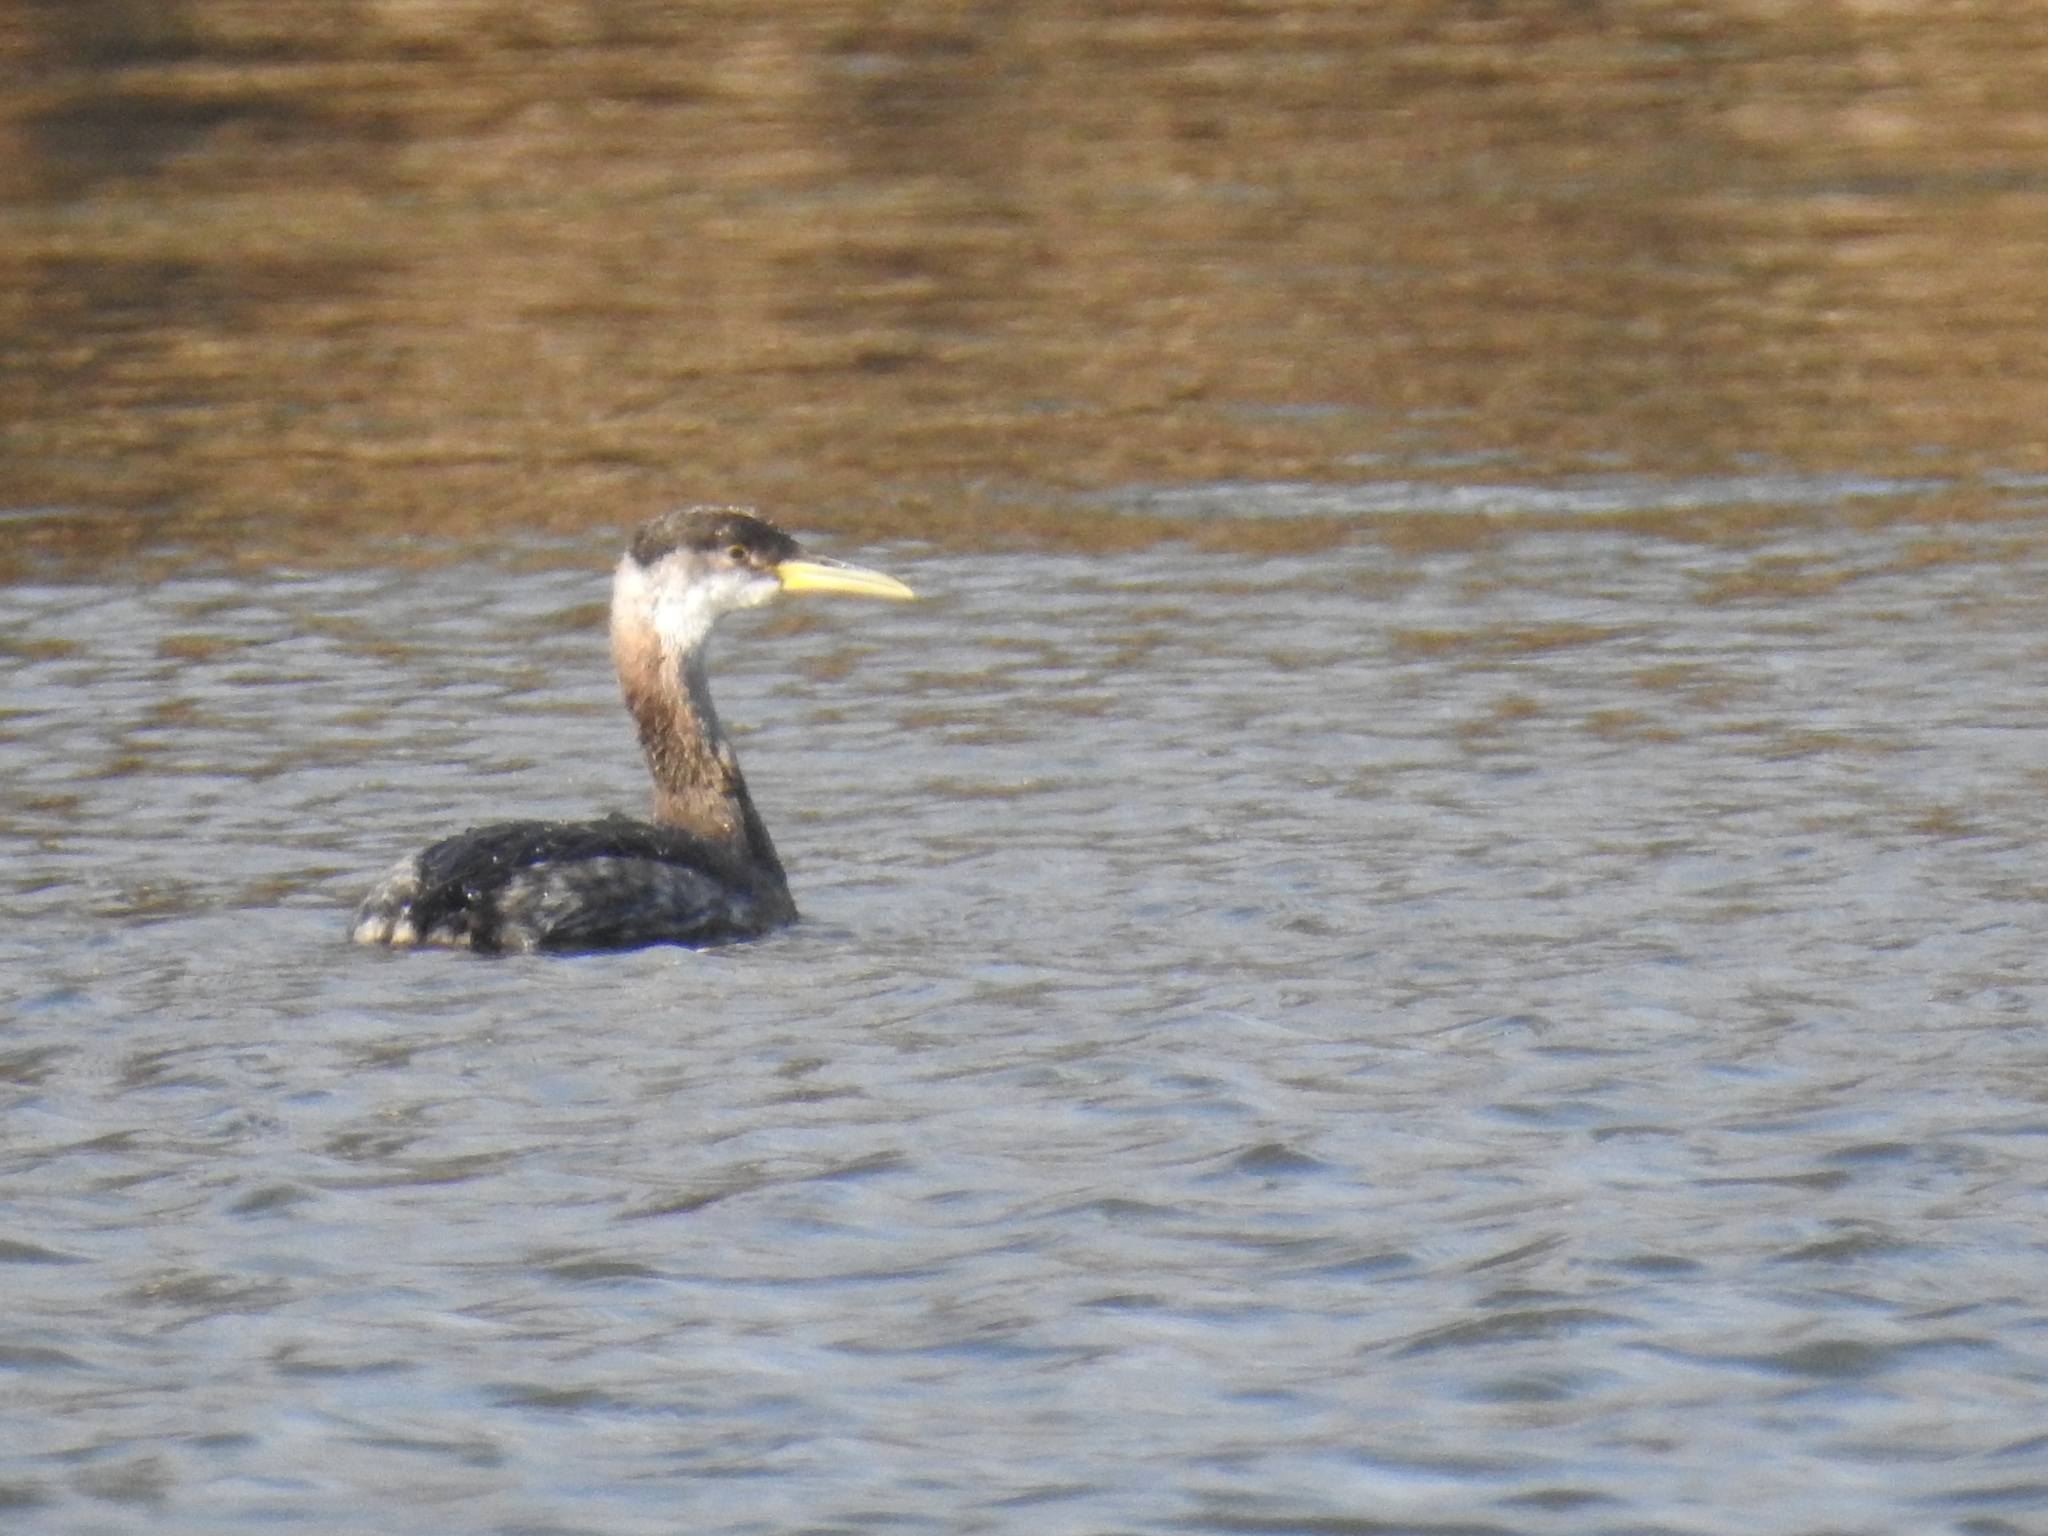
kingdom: Animalia
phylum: Chordata
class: Aves
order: Podicipediformes
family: Podicipedidae
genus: Podiceps
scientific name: Podiceps grisegena
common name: Red-necked grebe
